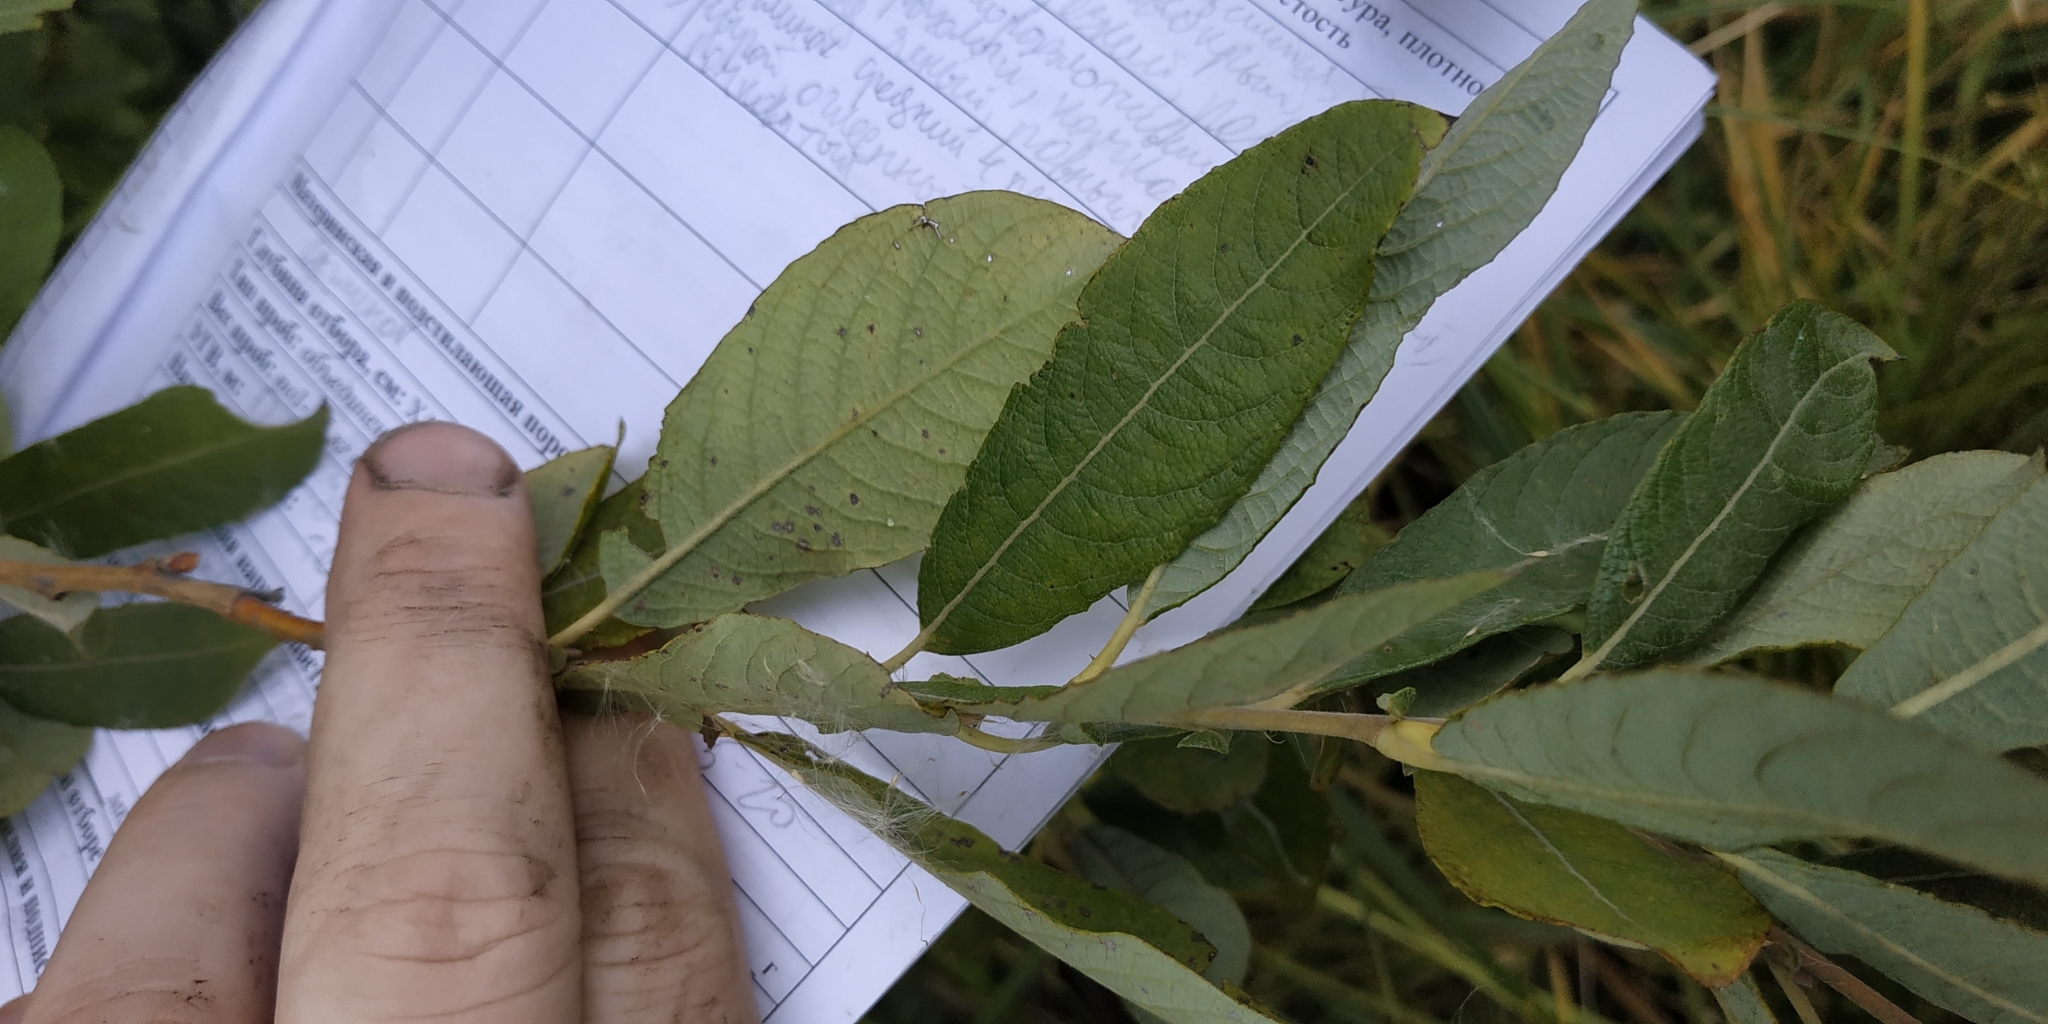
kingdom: Plantae
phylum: Tracheophyta
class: Magnoliopsida
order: Malpighiales
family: Salicaceae
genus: Salix
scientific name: Salix cinerea
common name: Common sallow
